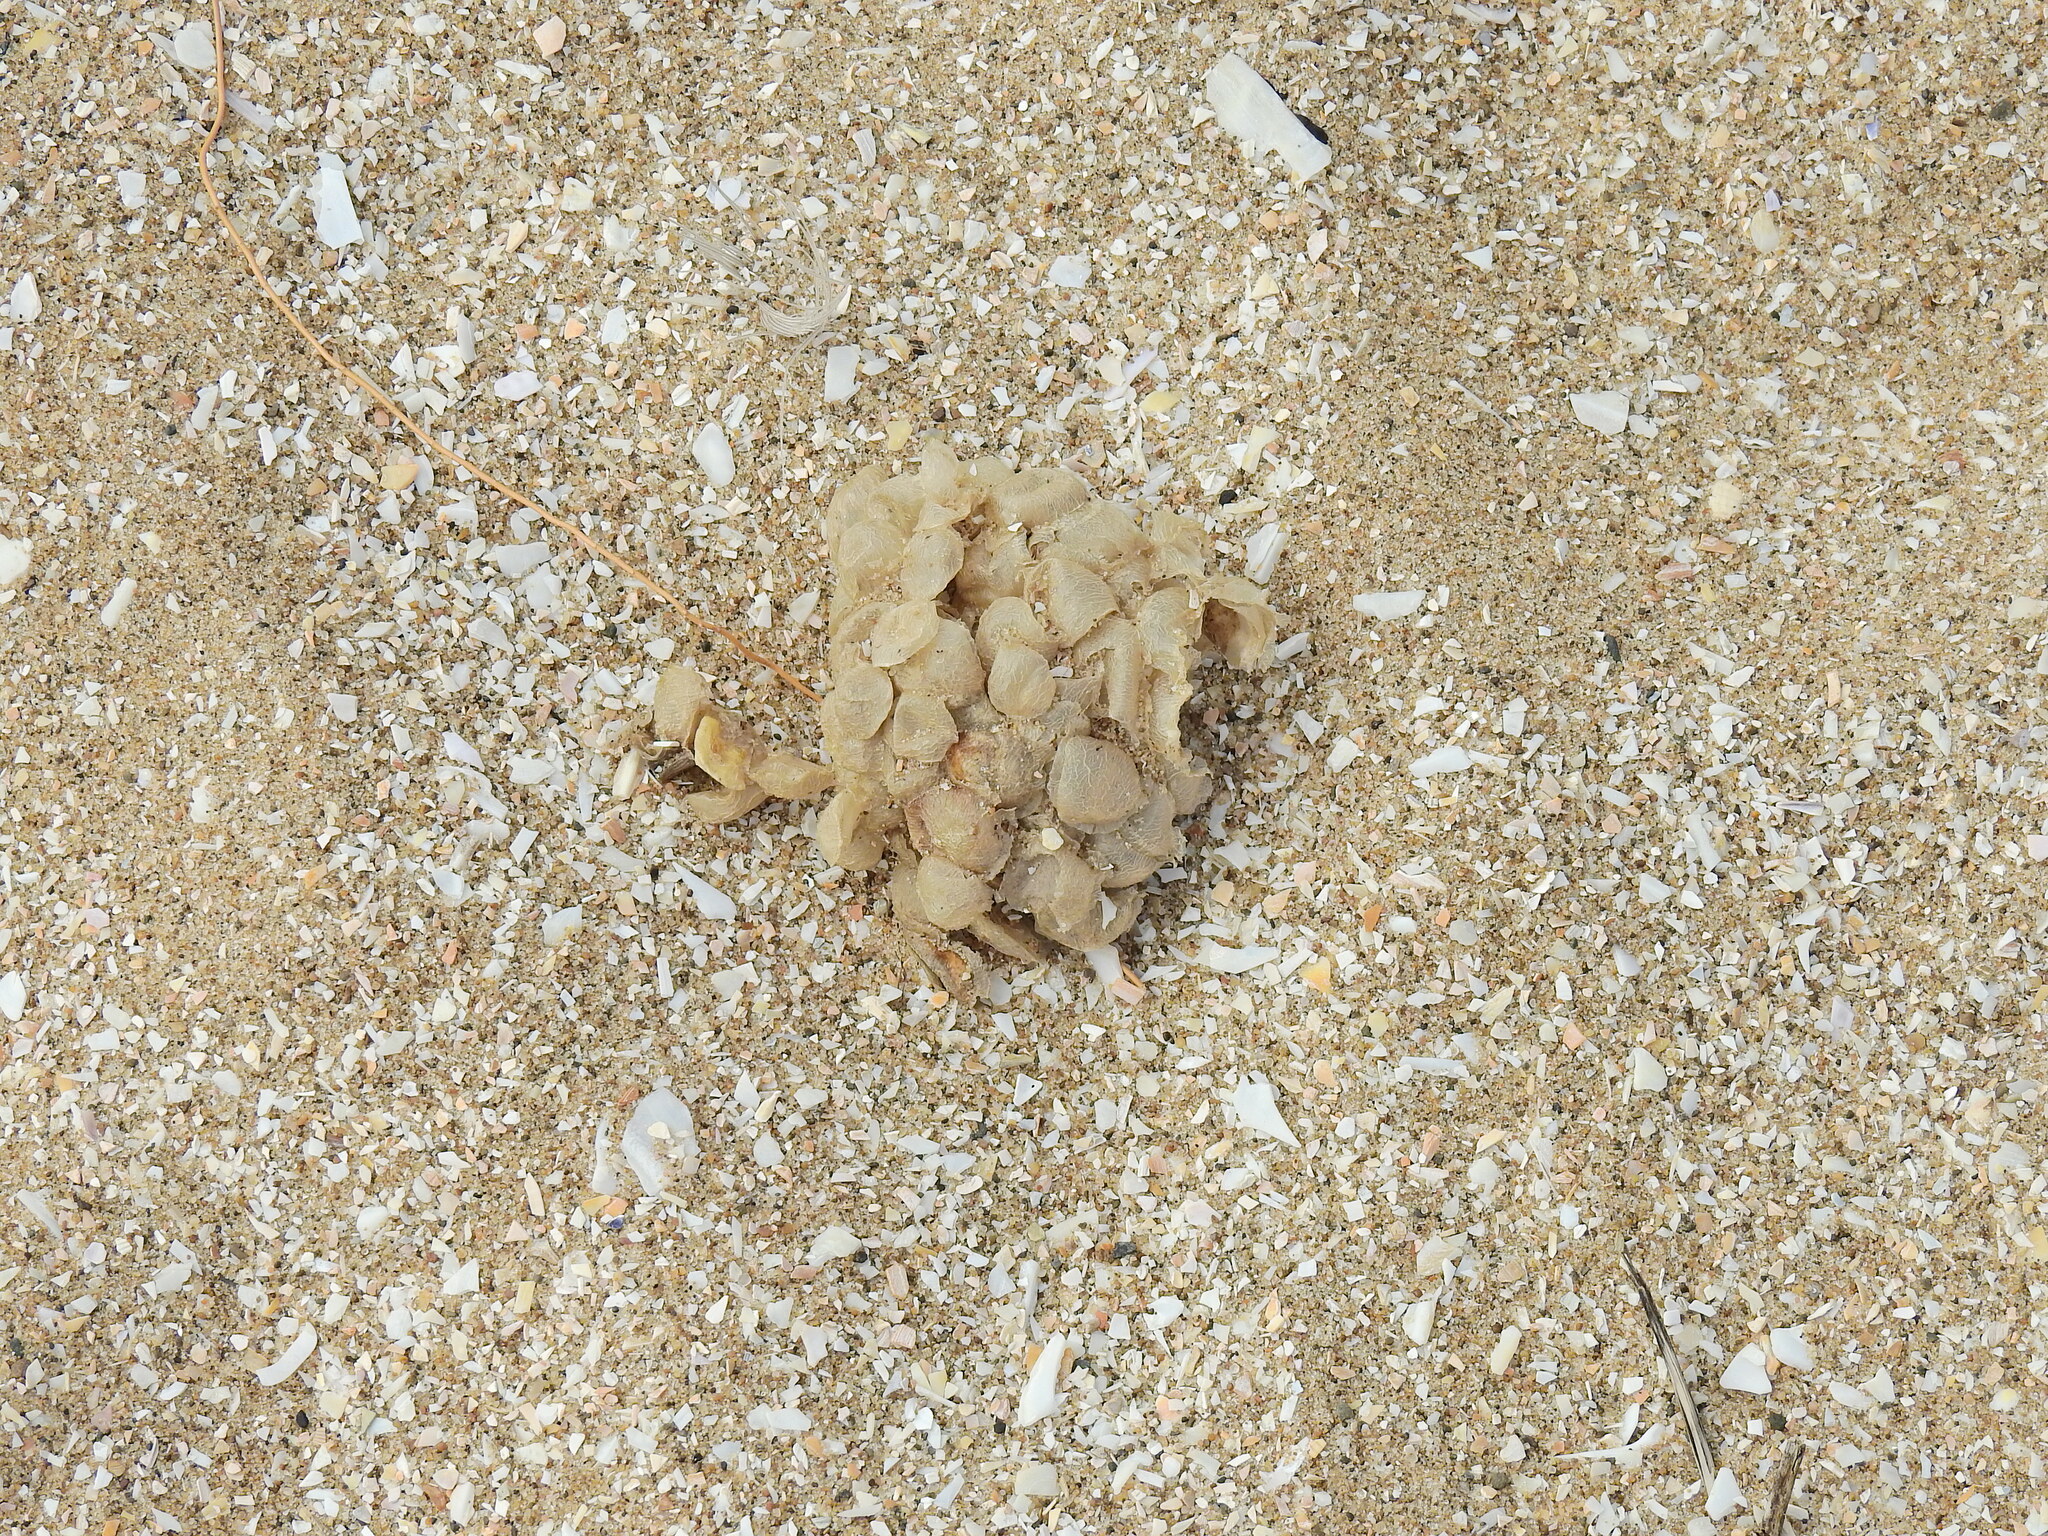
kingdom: Animalia
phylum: Mollusca
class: Gastropoda
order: Neogastropoda
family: Buccinidae
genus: Buccinum
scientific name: Buccinum undatum
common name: Common whelk
